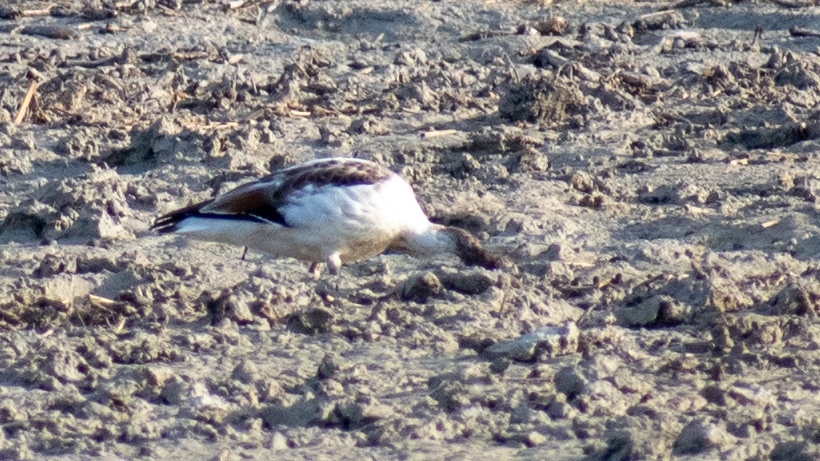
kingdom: Animalia
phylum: Chordata
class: Aves
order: Anseriformes
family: Anatidae
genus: Tadorna
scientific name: Tadorna tadorna
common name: Common shelduck
